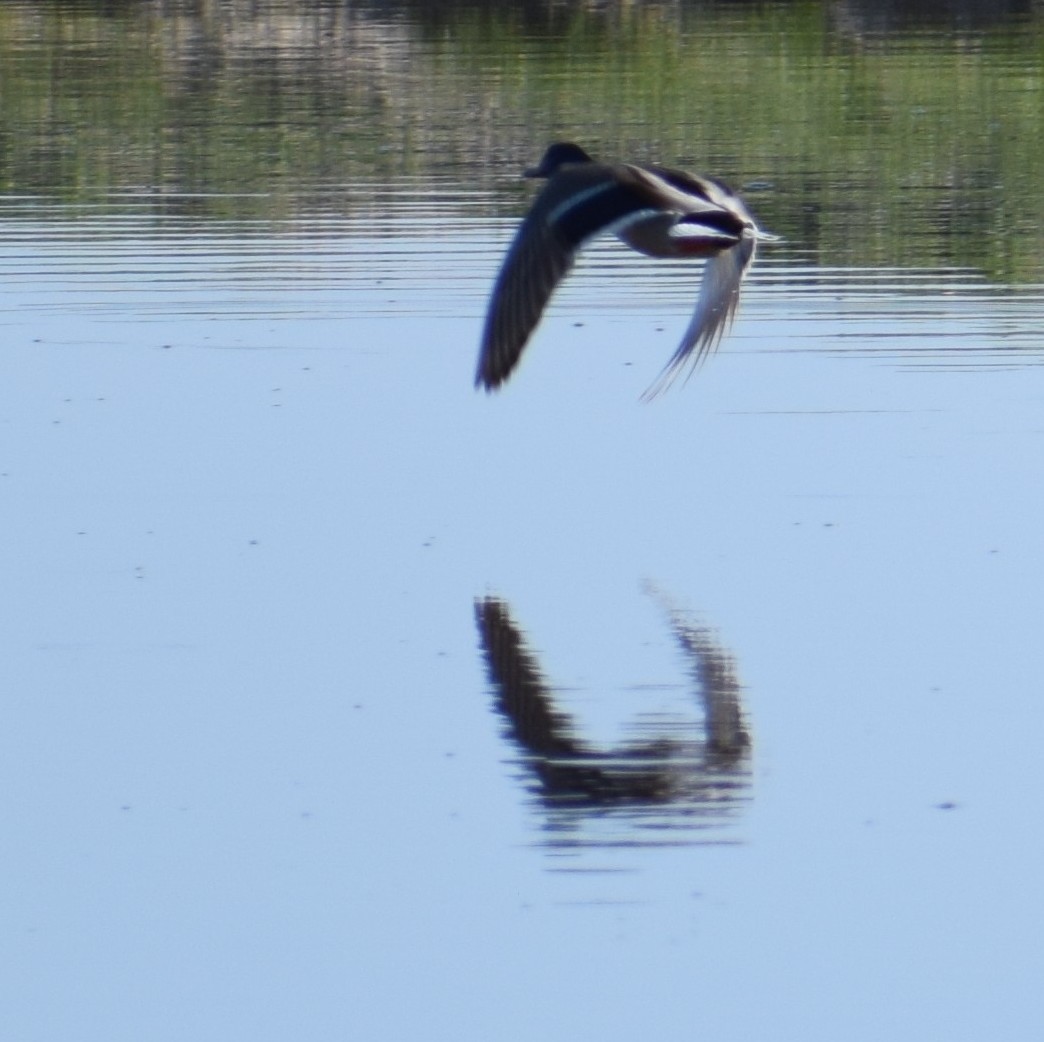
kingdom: Animalia
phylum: Chordata
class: Aves
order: Anseriformes
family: Anatidae
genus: Anas
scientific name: Anas platyrhynchos
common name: Mallard
